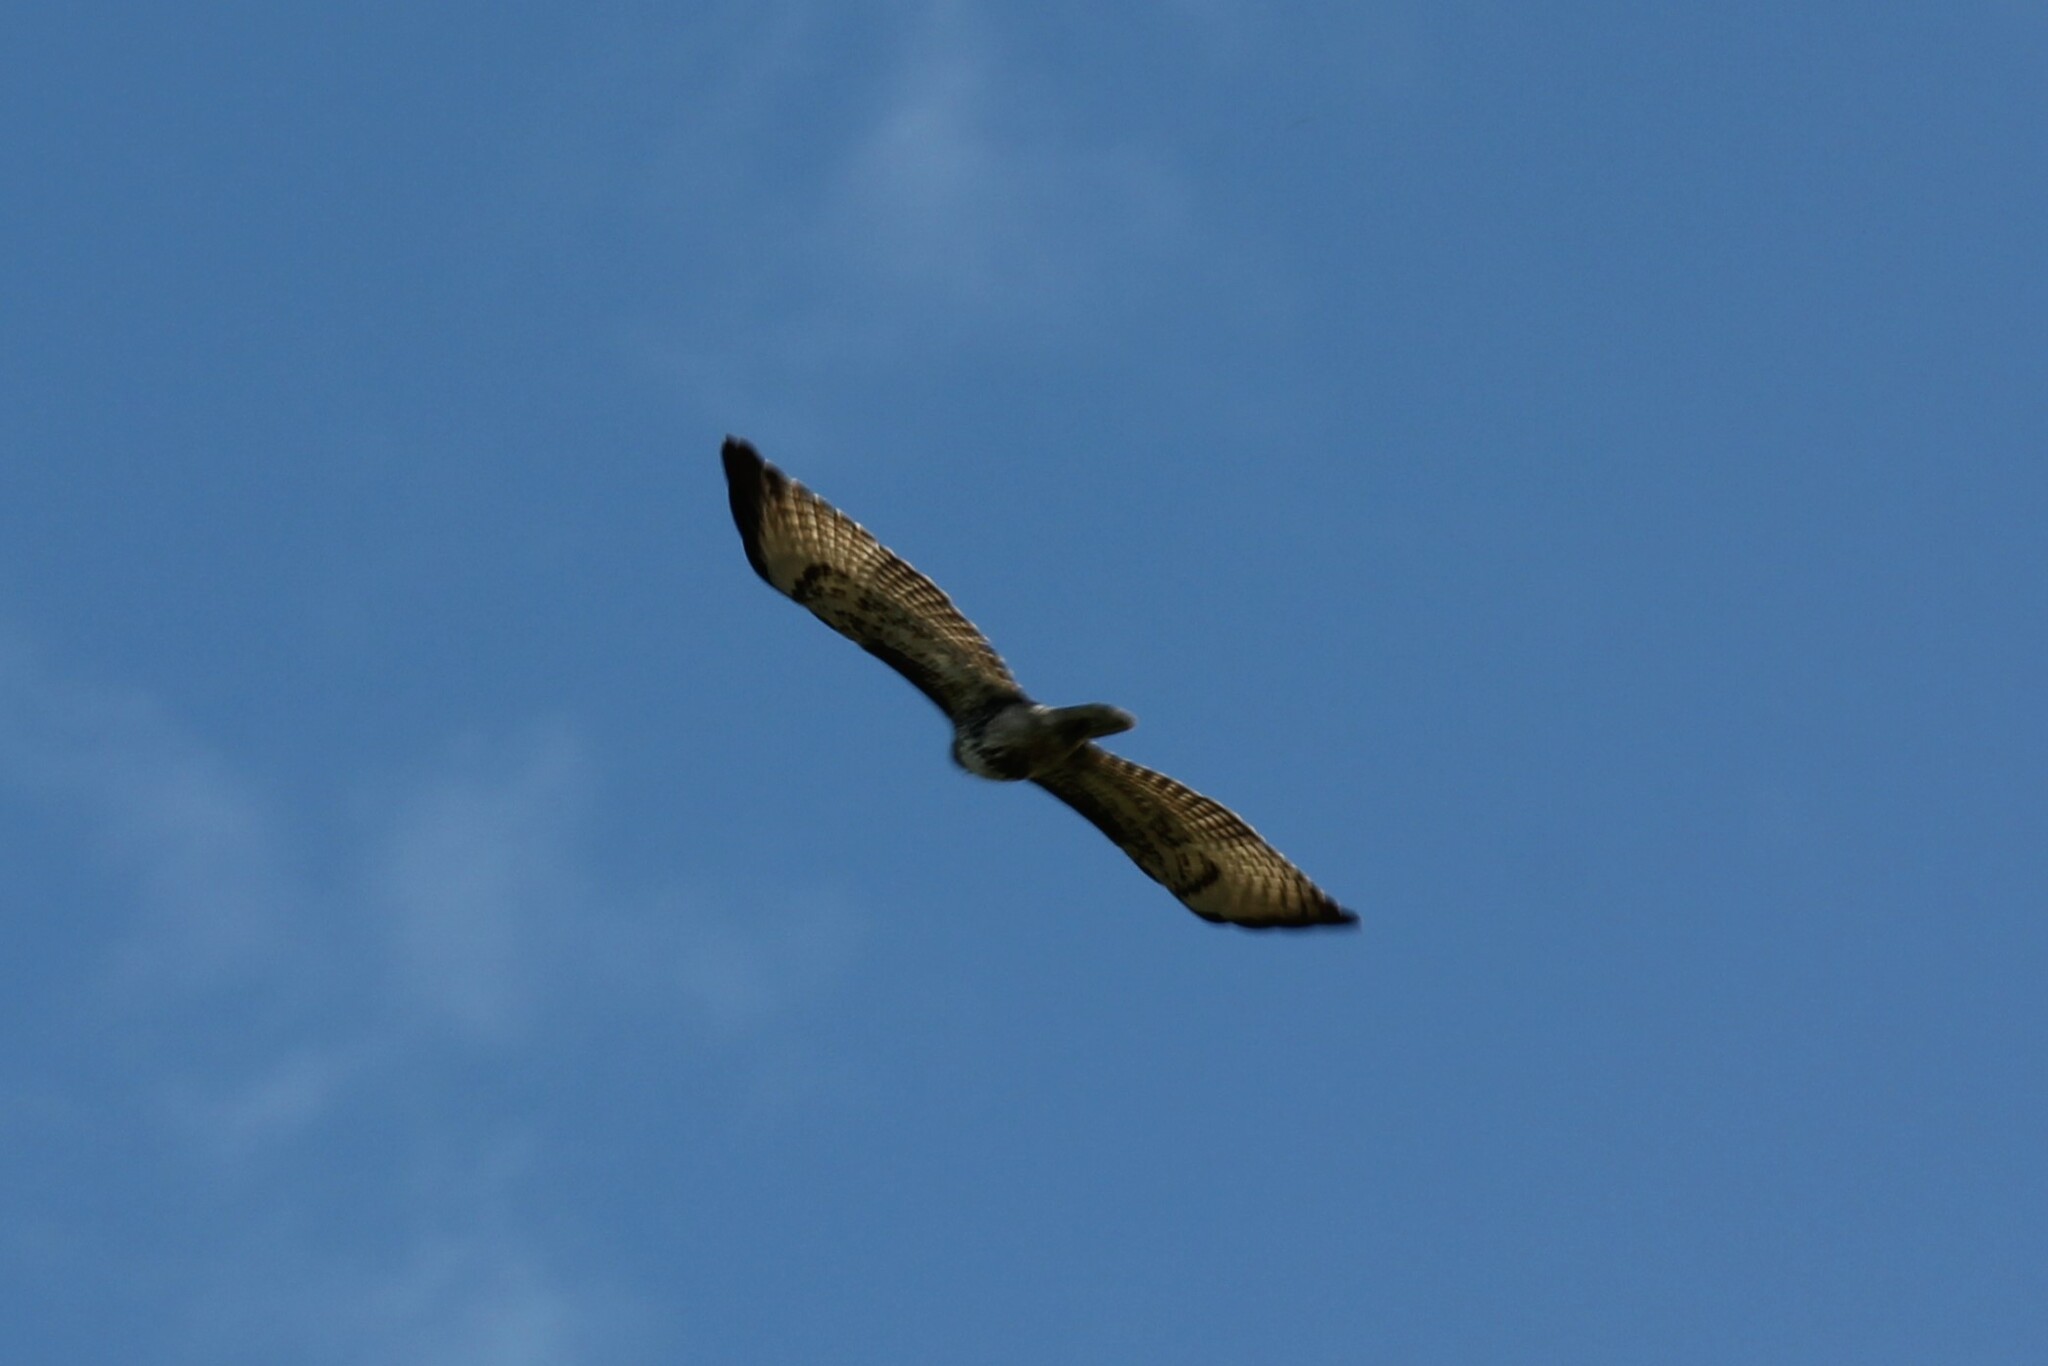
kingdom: Animalia
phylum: Chordata
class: Aves
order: Accipitriformes
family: Accipitridae
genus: Buteo
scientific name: Buteo jamaicensis
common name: Red-tailed hawk
